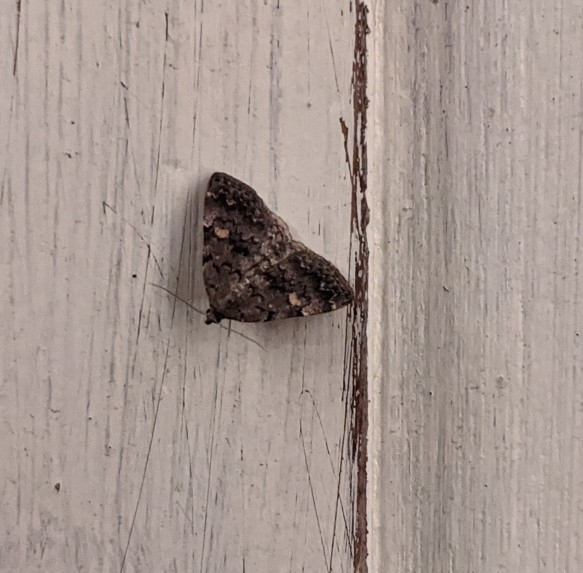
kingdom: Animalia
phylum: Arthropoda
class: Insecta
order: Lepidoptera
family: Erebidae
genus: Idia
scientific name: Idia aemula
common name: Common idia moth
